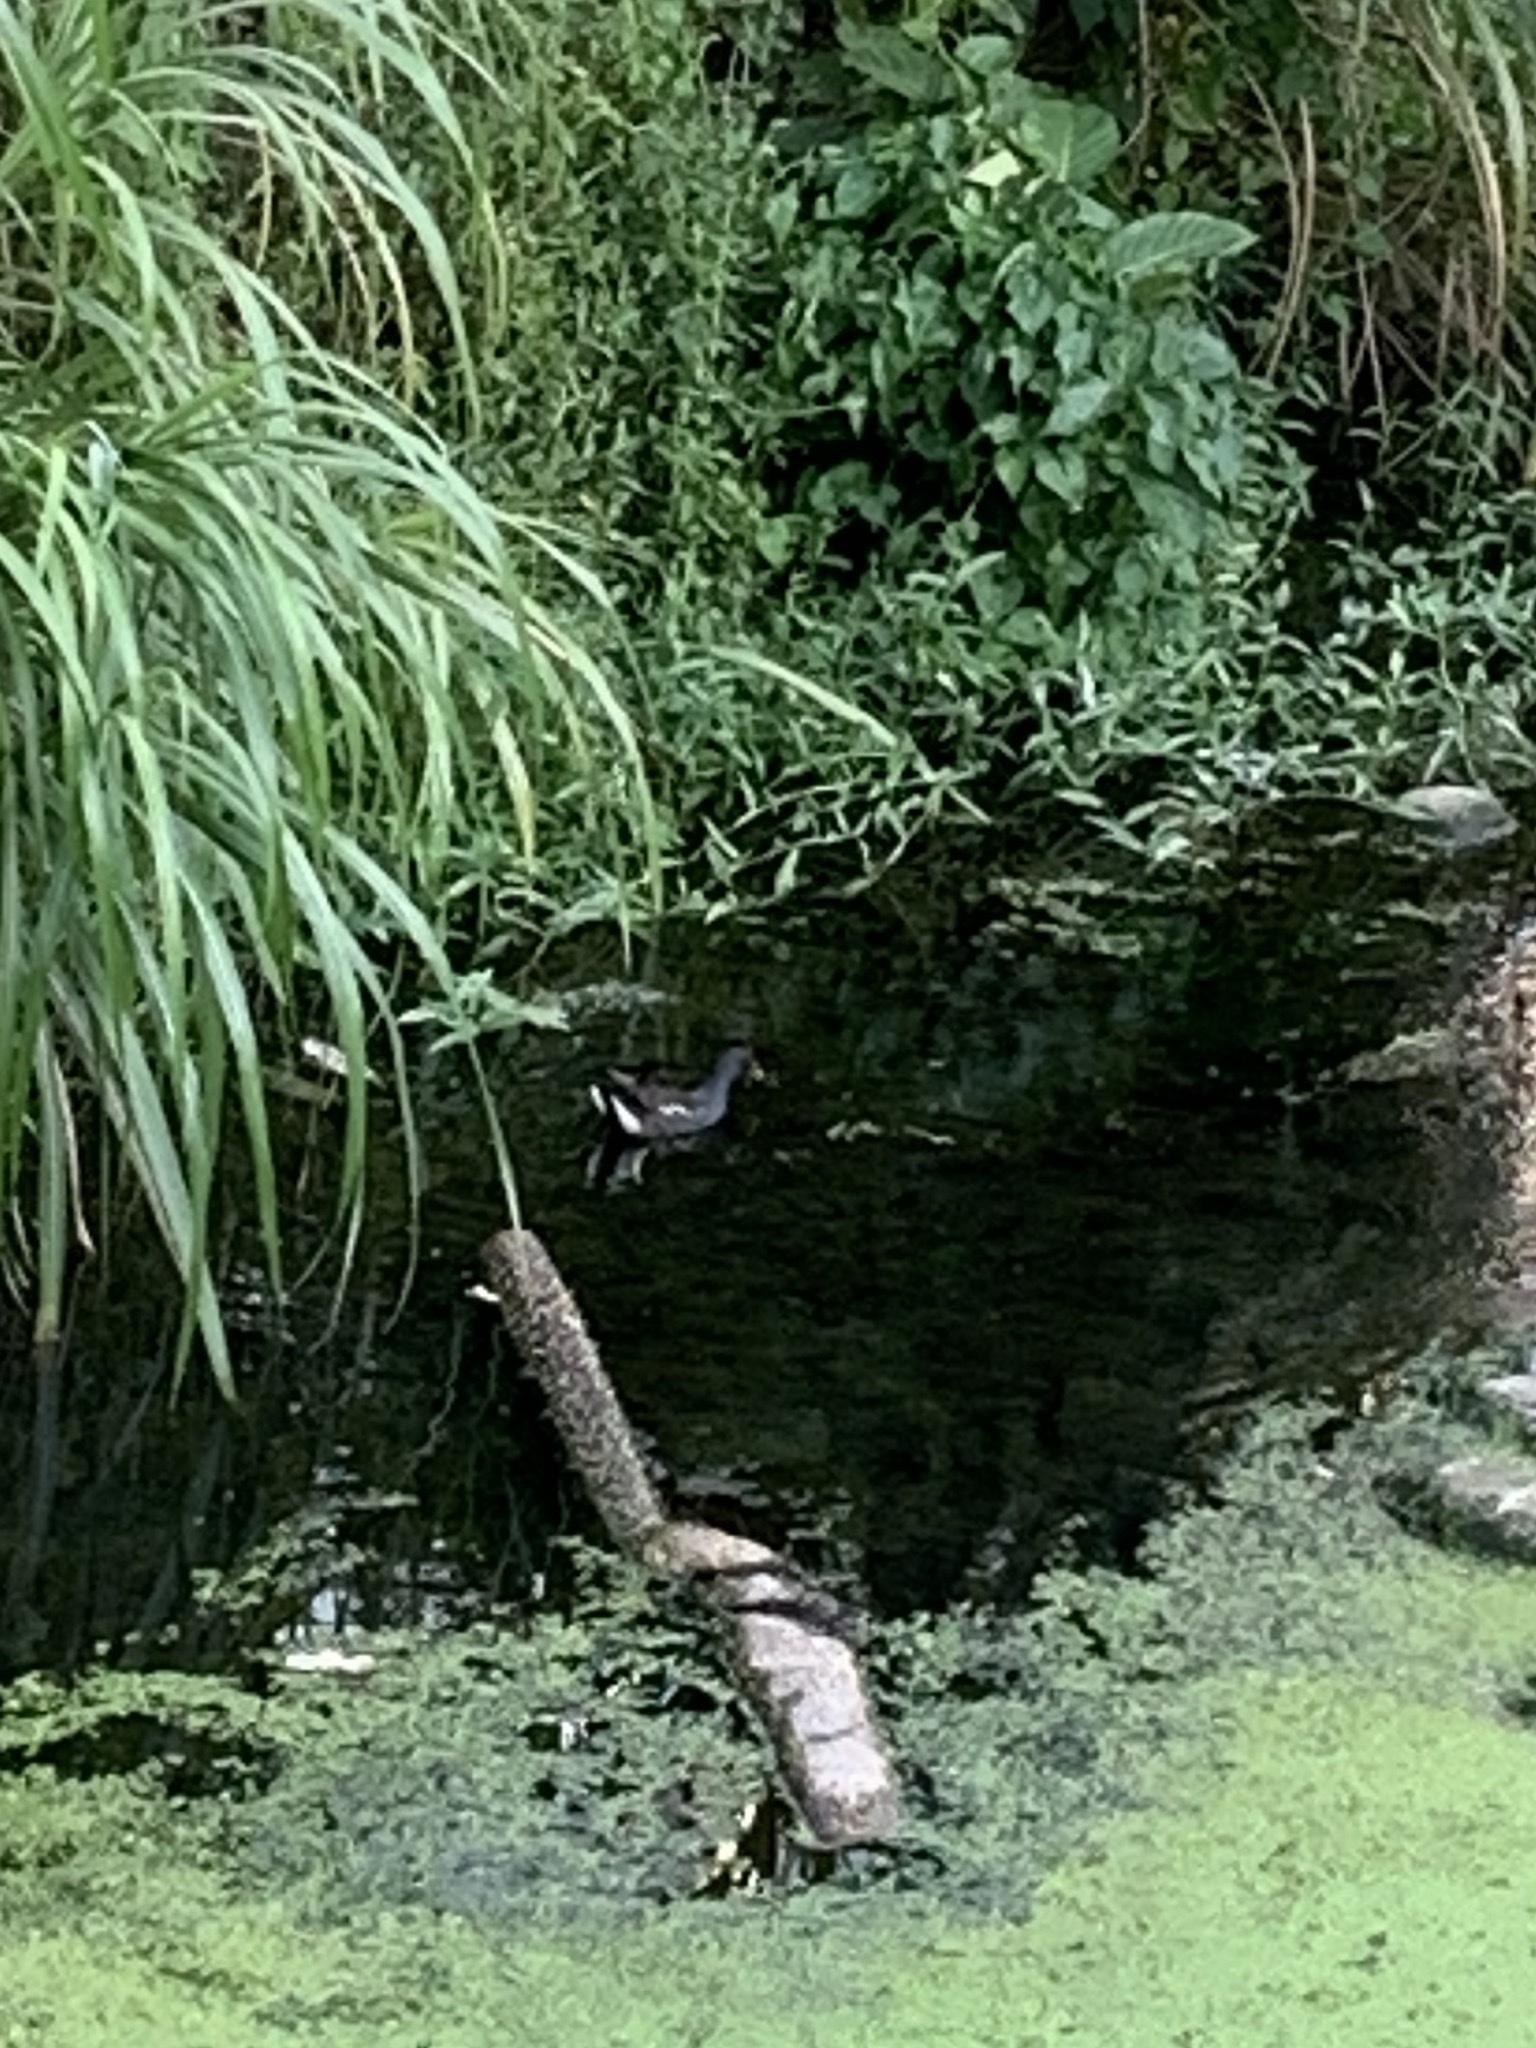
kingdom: Animalia
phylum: Chordata
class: Aves
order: Gruiformes
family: Rallidae
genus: Gallinula
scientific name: Gallinula chloropus
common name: Common moorhen
